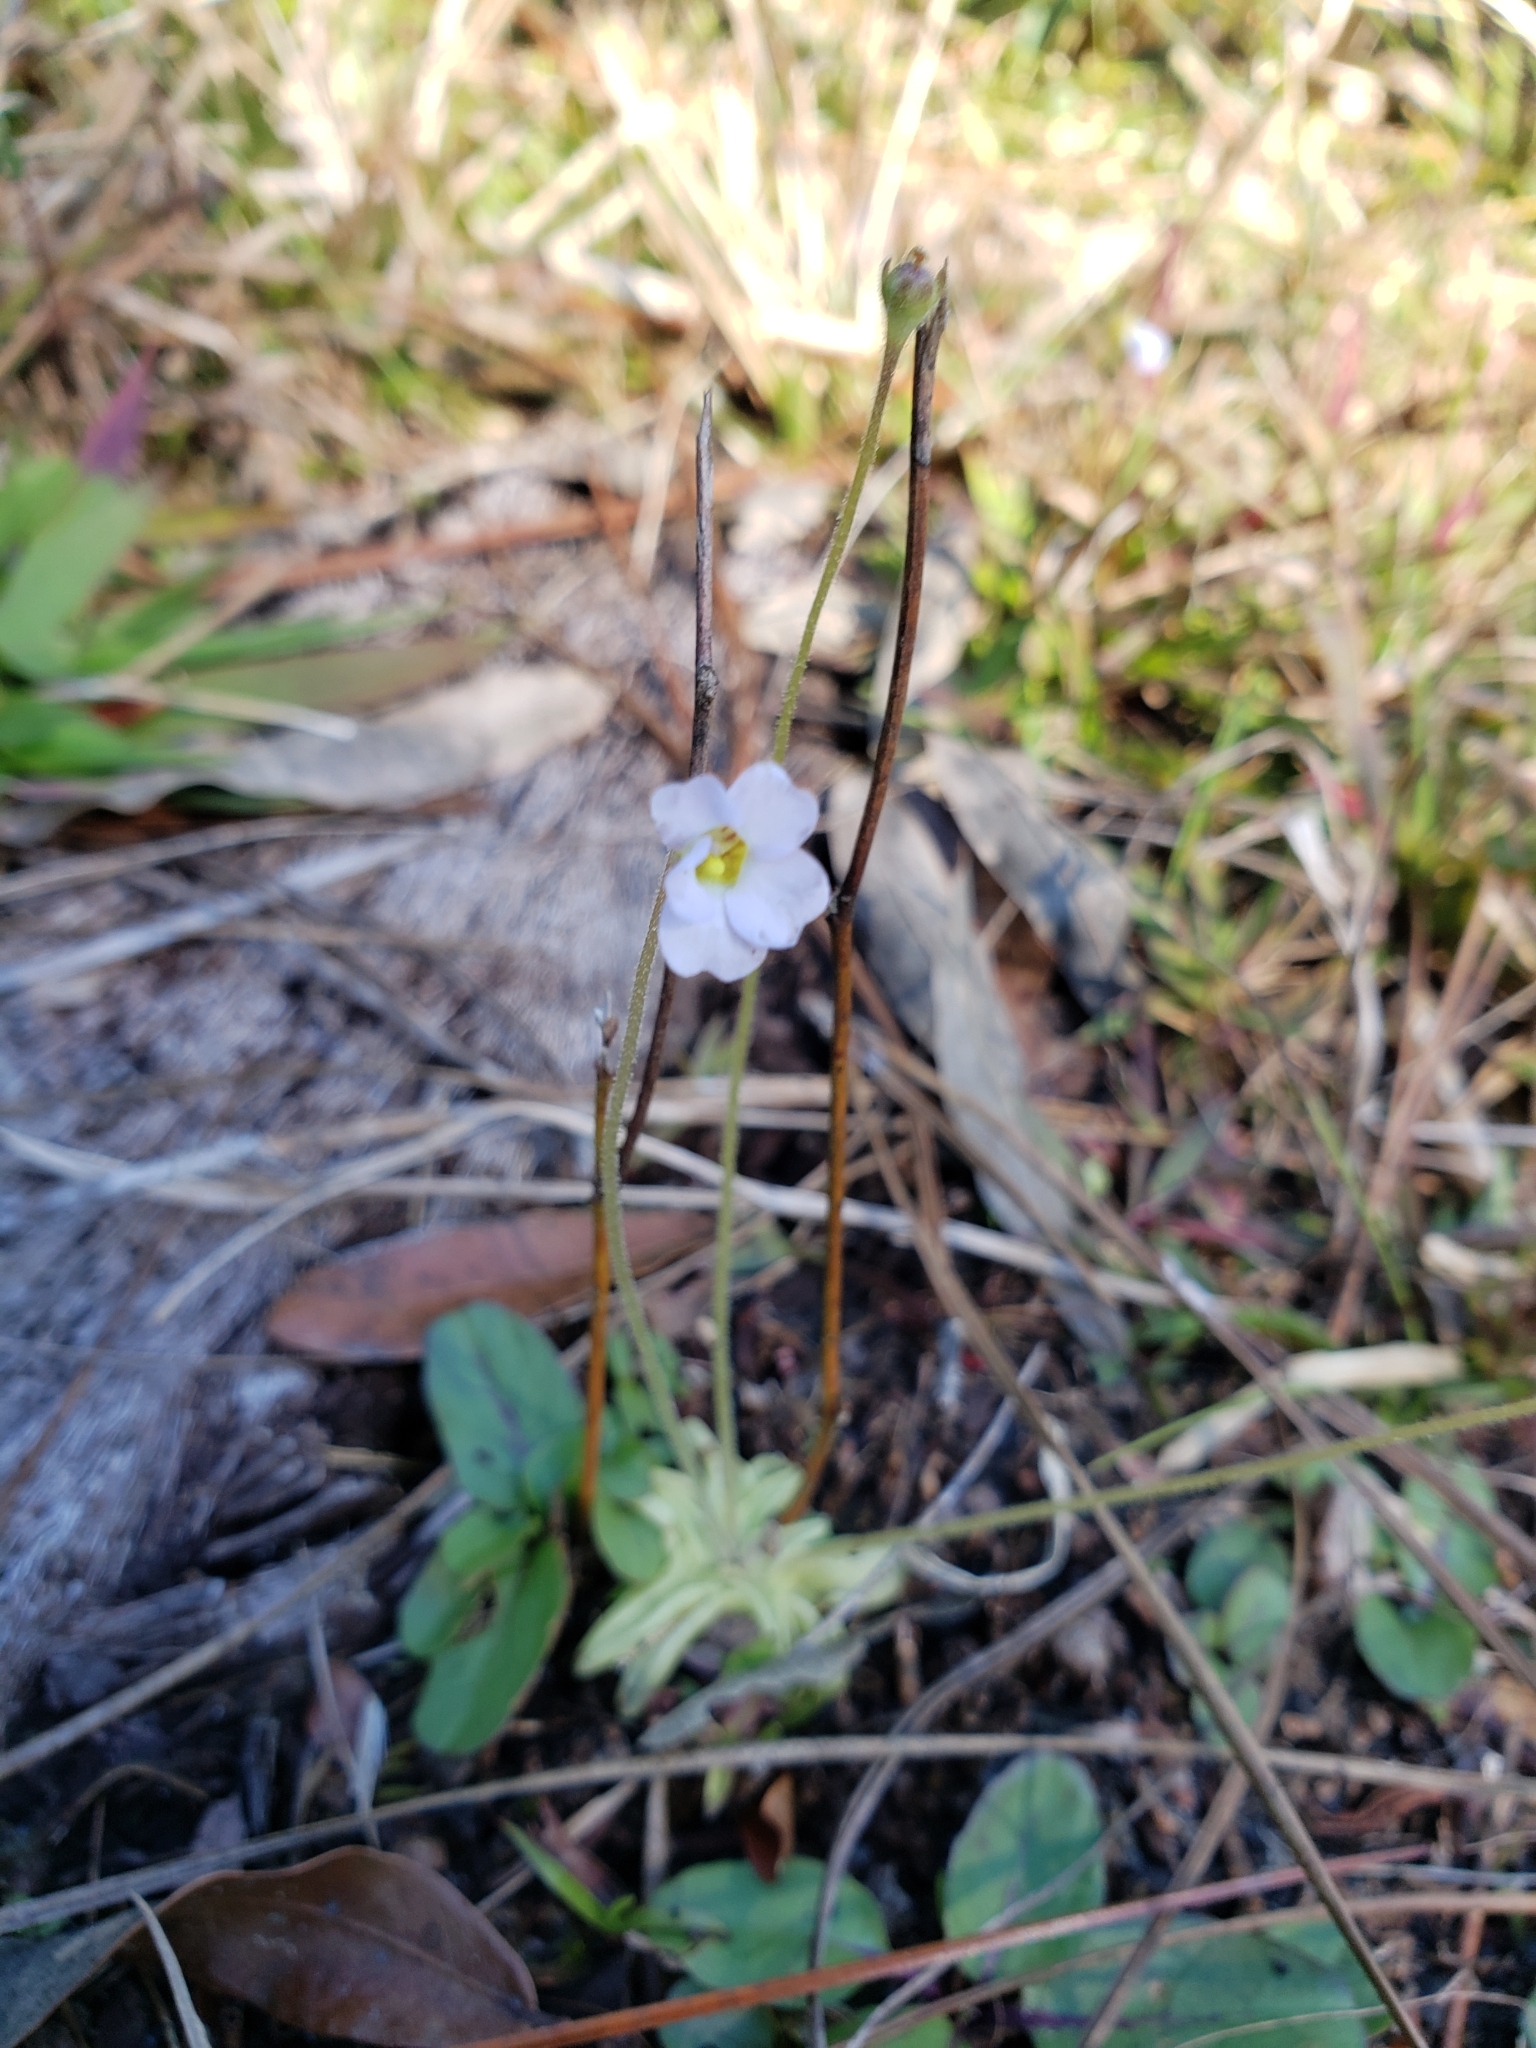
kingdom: Plantae
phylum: Tracheophyta
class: Magnoliopsida
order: Lamiales
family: Lentibulariaceae
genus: Pinguicula
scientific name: Pinguicula pumila
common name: Small butterwort
